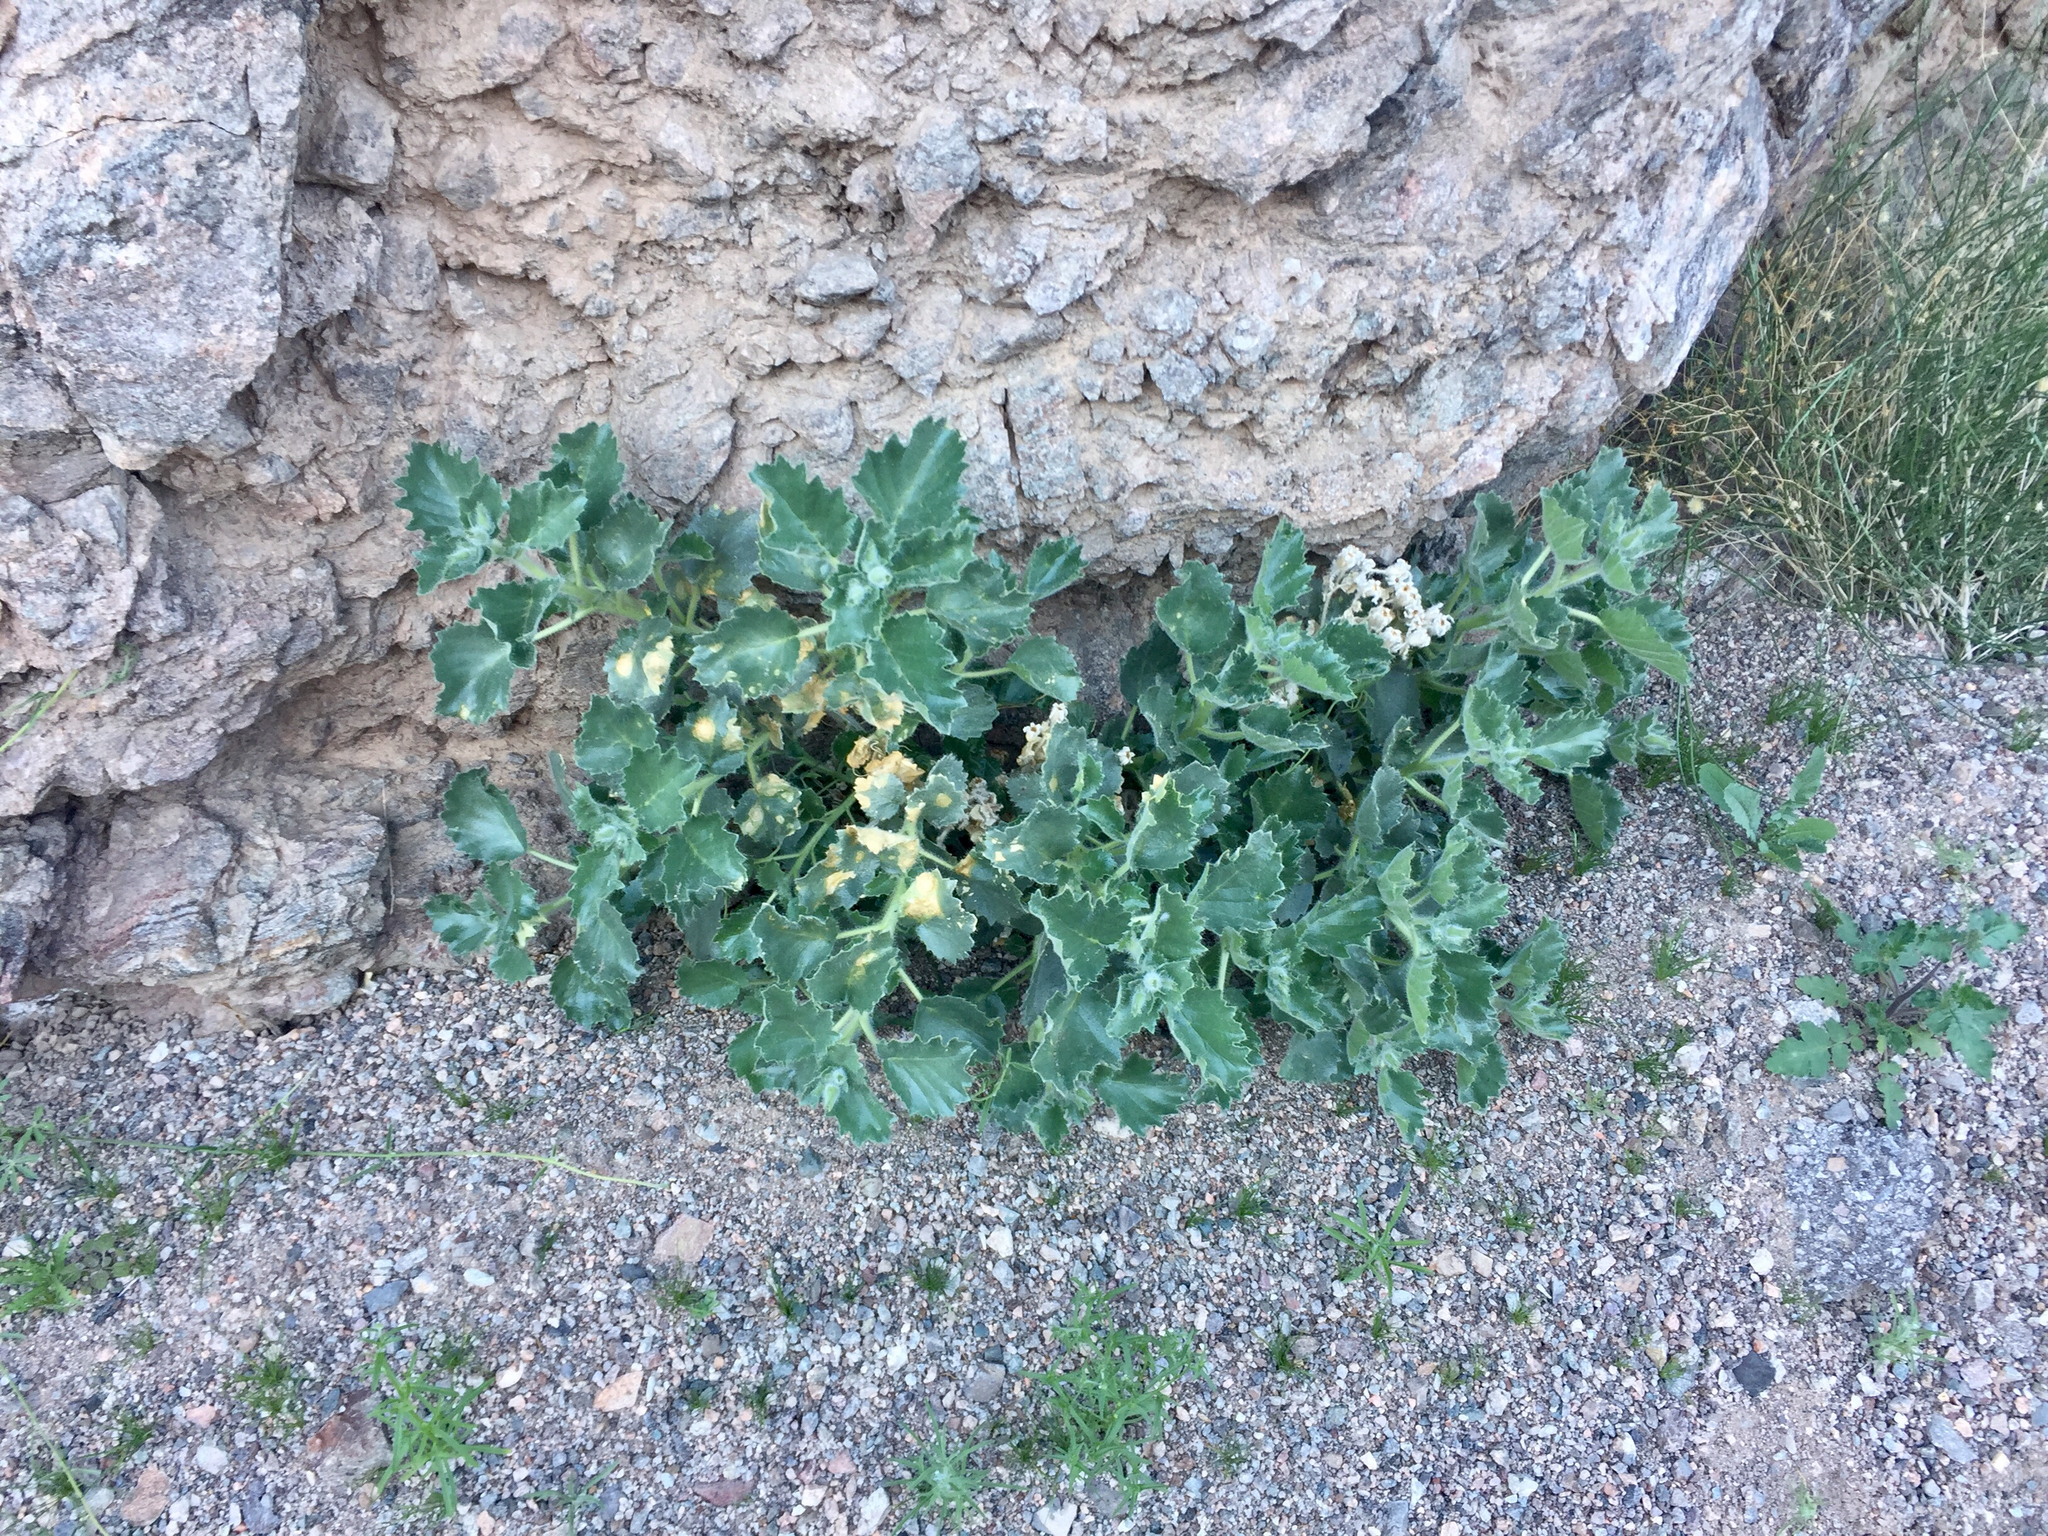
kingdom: Plantae
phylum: Tracheophyta
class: Magnoliopsida
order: Cornales
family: Loasaceae
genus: Eucnide
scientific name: Eucnide urens
